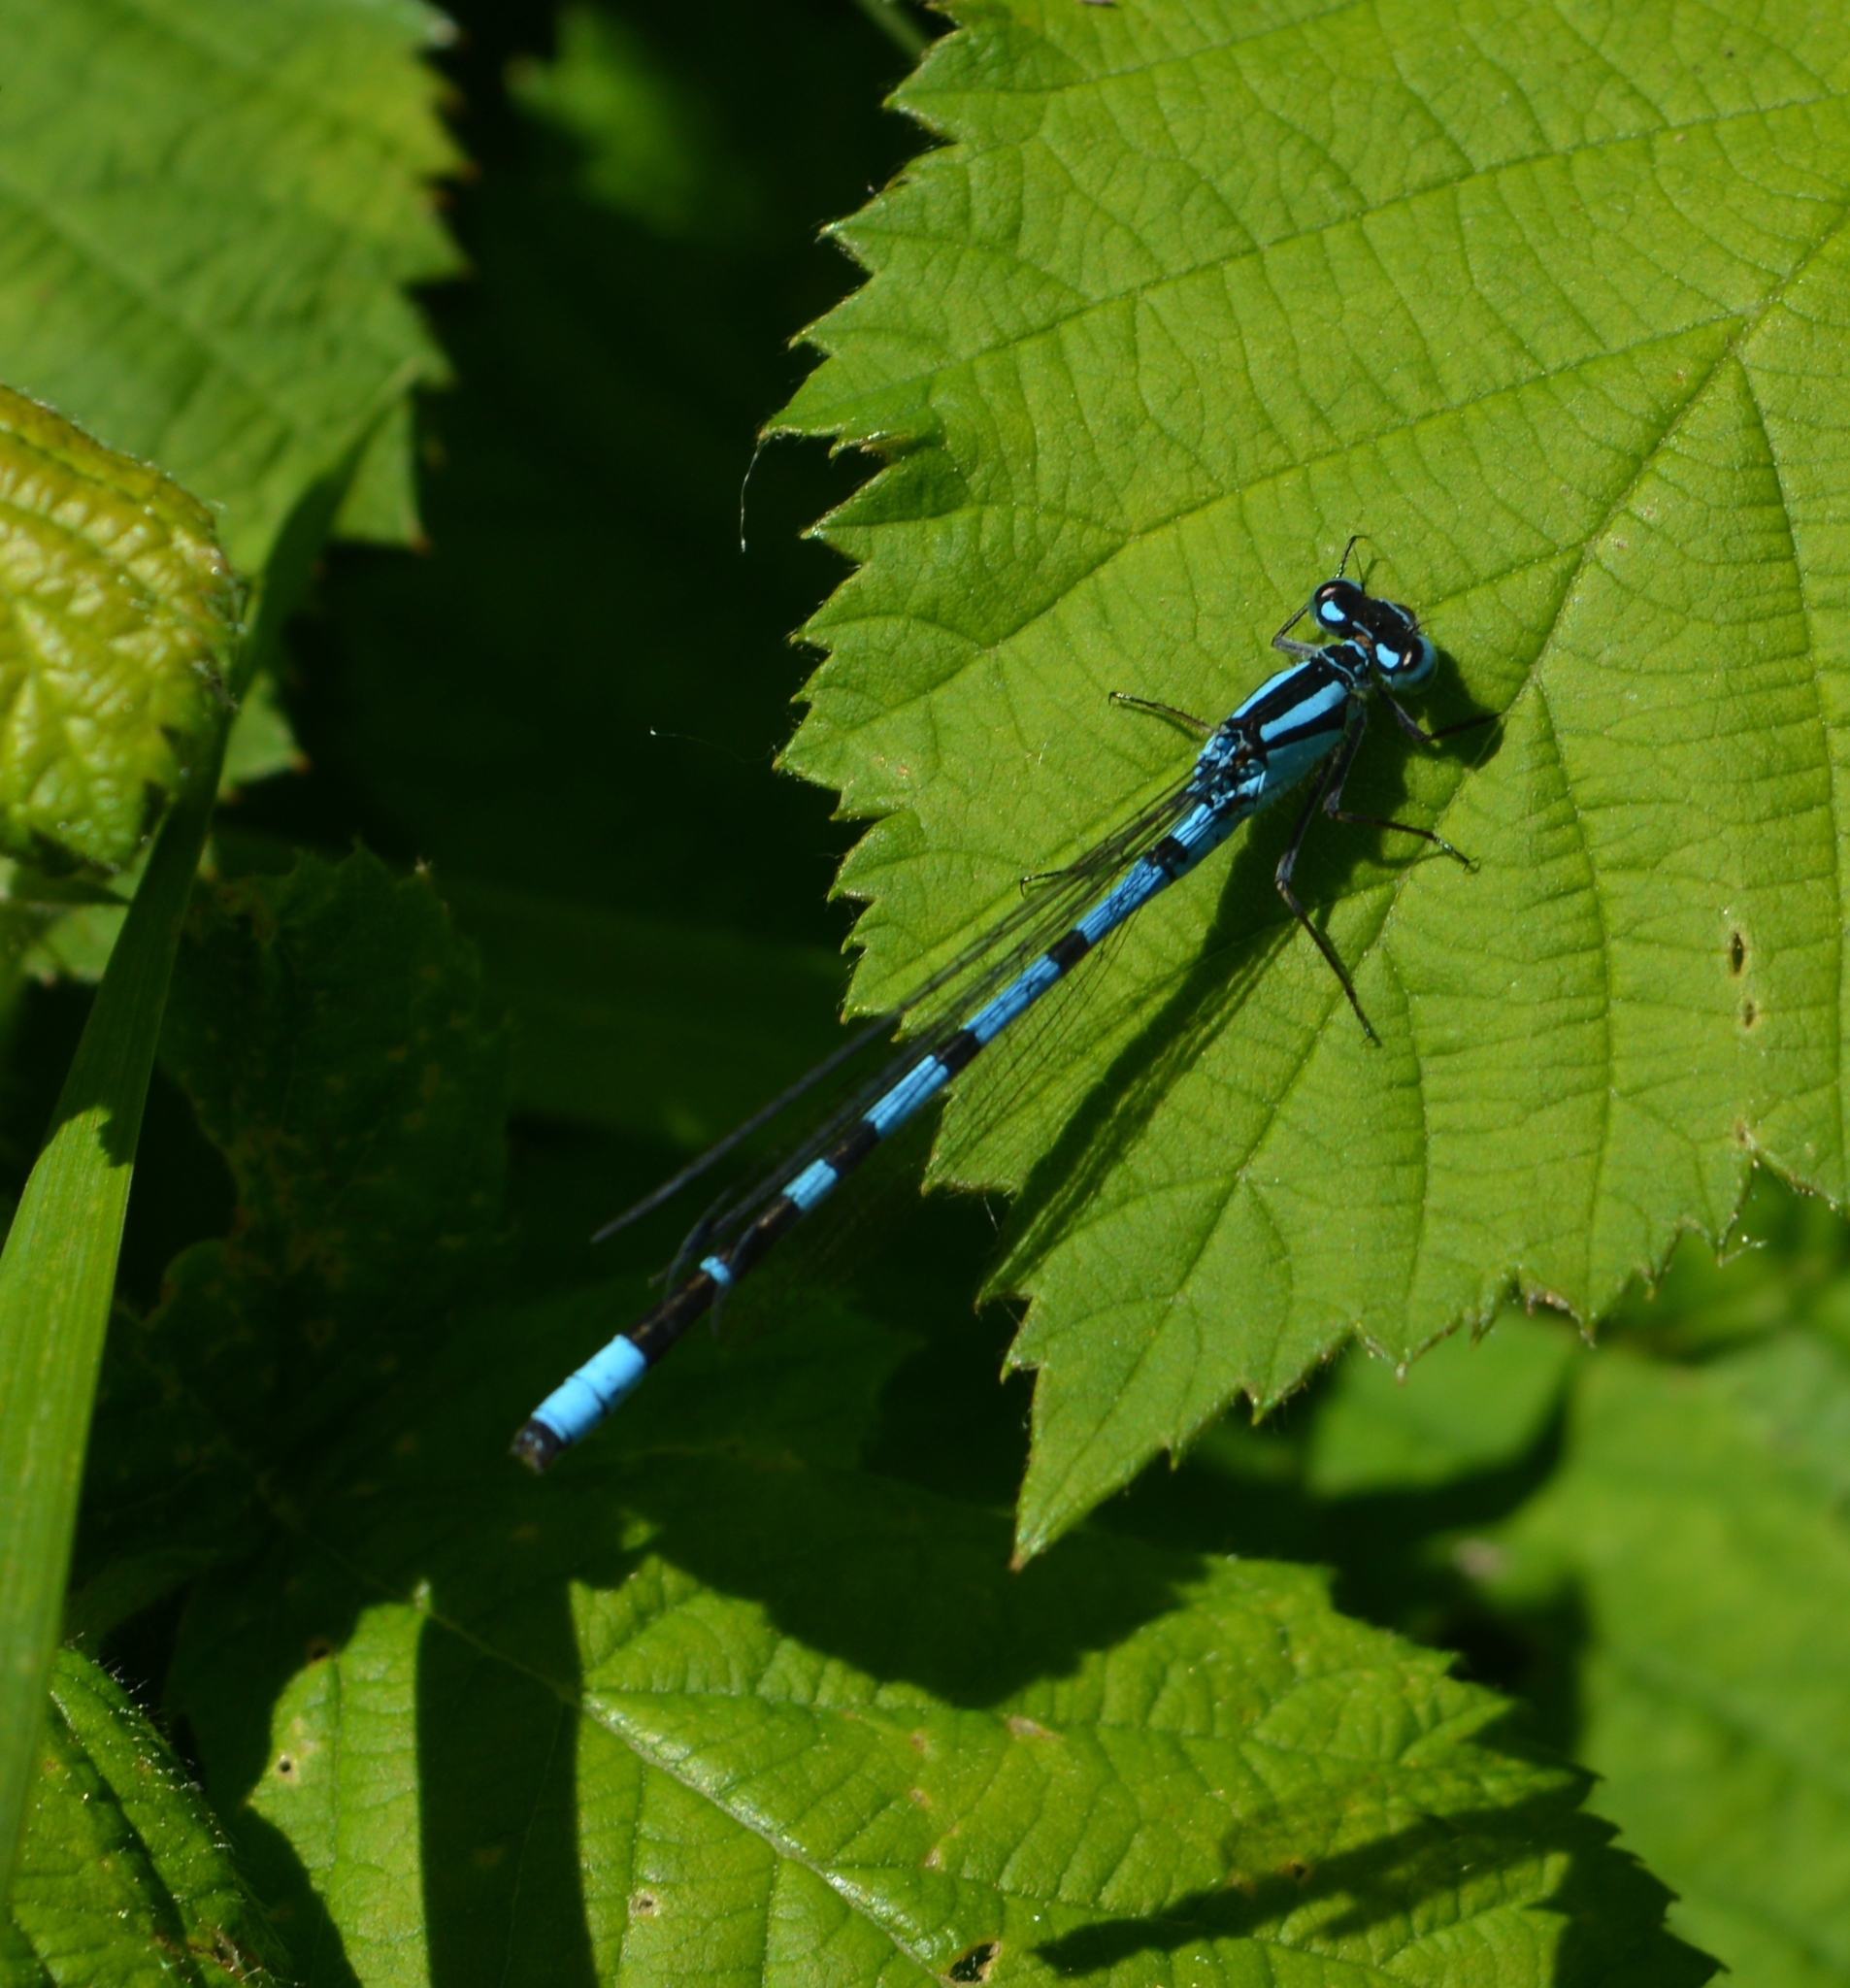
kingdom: Animalia
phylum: Arthropoda
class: Insecta
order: Odonata
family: Coenagrionidae
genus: Enallagma
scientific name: Enallagma cyathigerum
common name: Common blue damselfly
